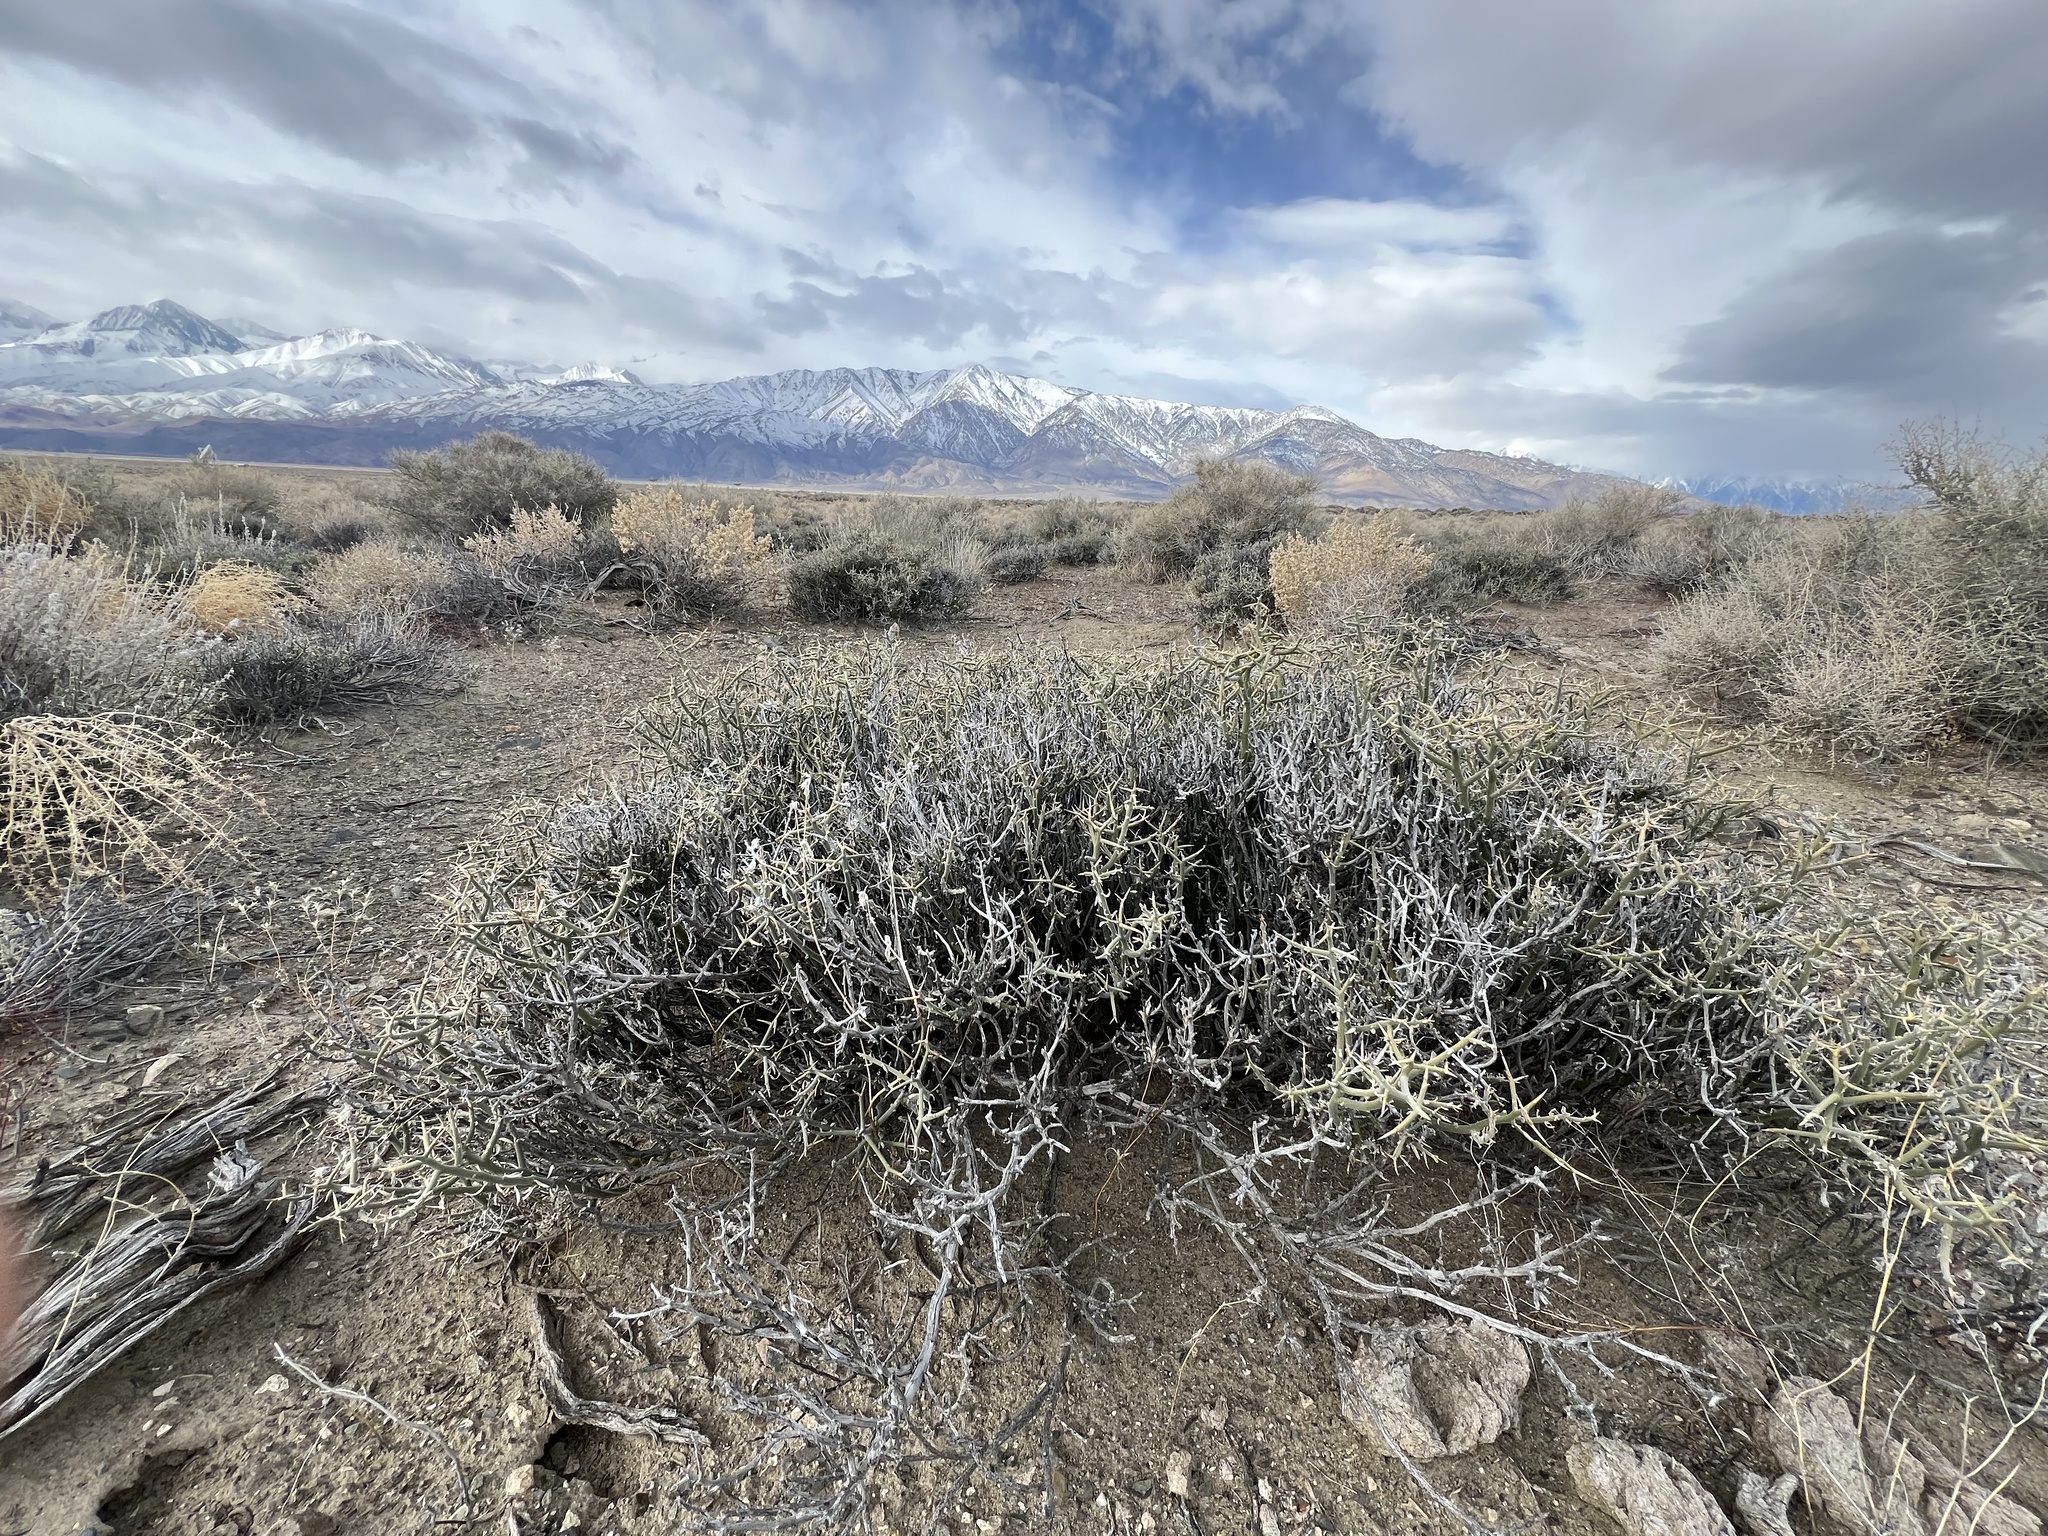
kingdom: Plantae
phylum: Tracheophyta
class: Magnoliopsida
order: Lamiales
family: Oleaceae
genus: Menodora
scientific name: Menodora spinescens
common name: Spiny menodora
